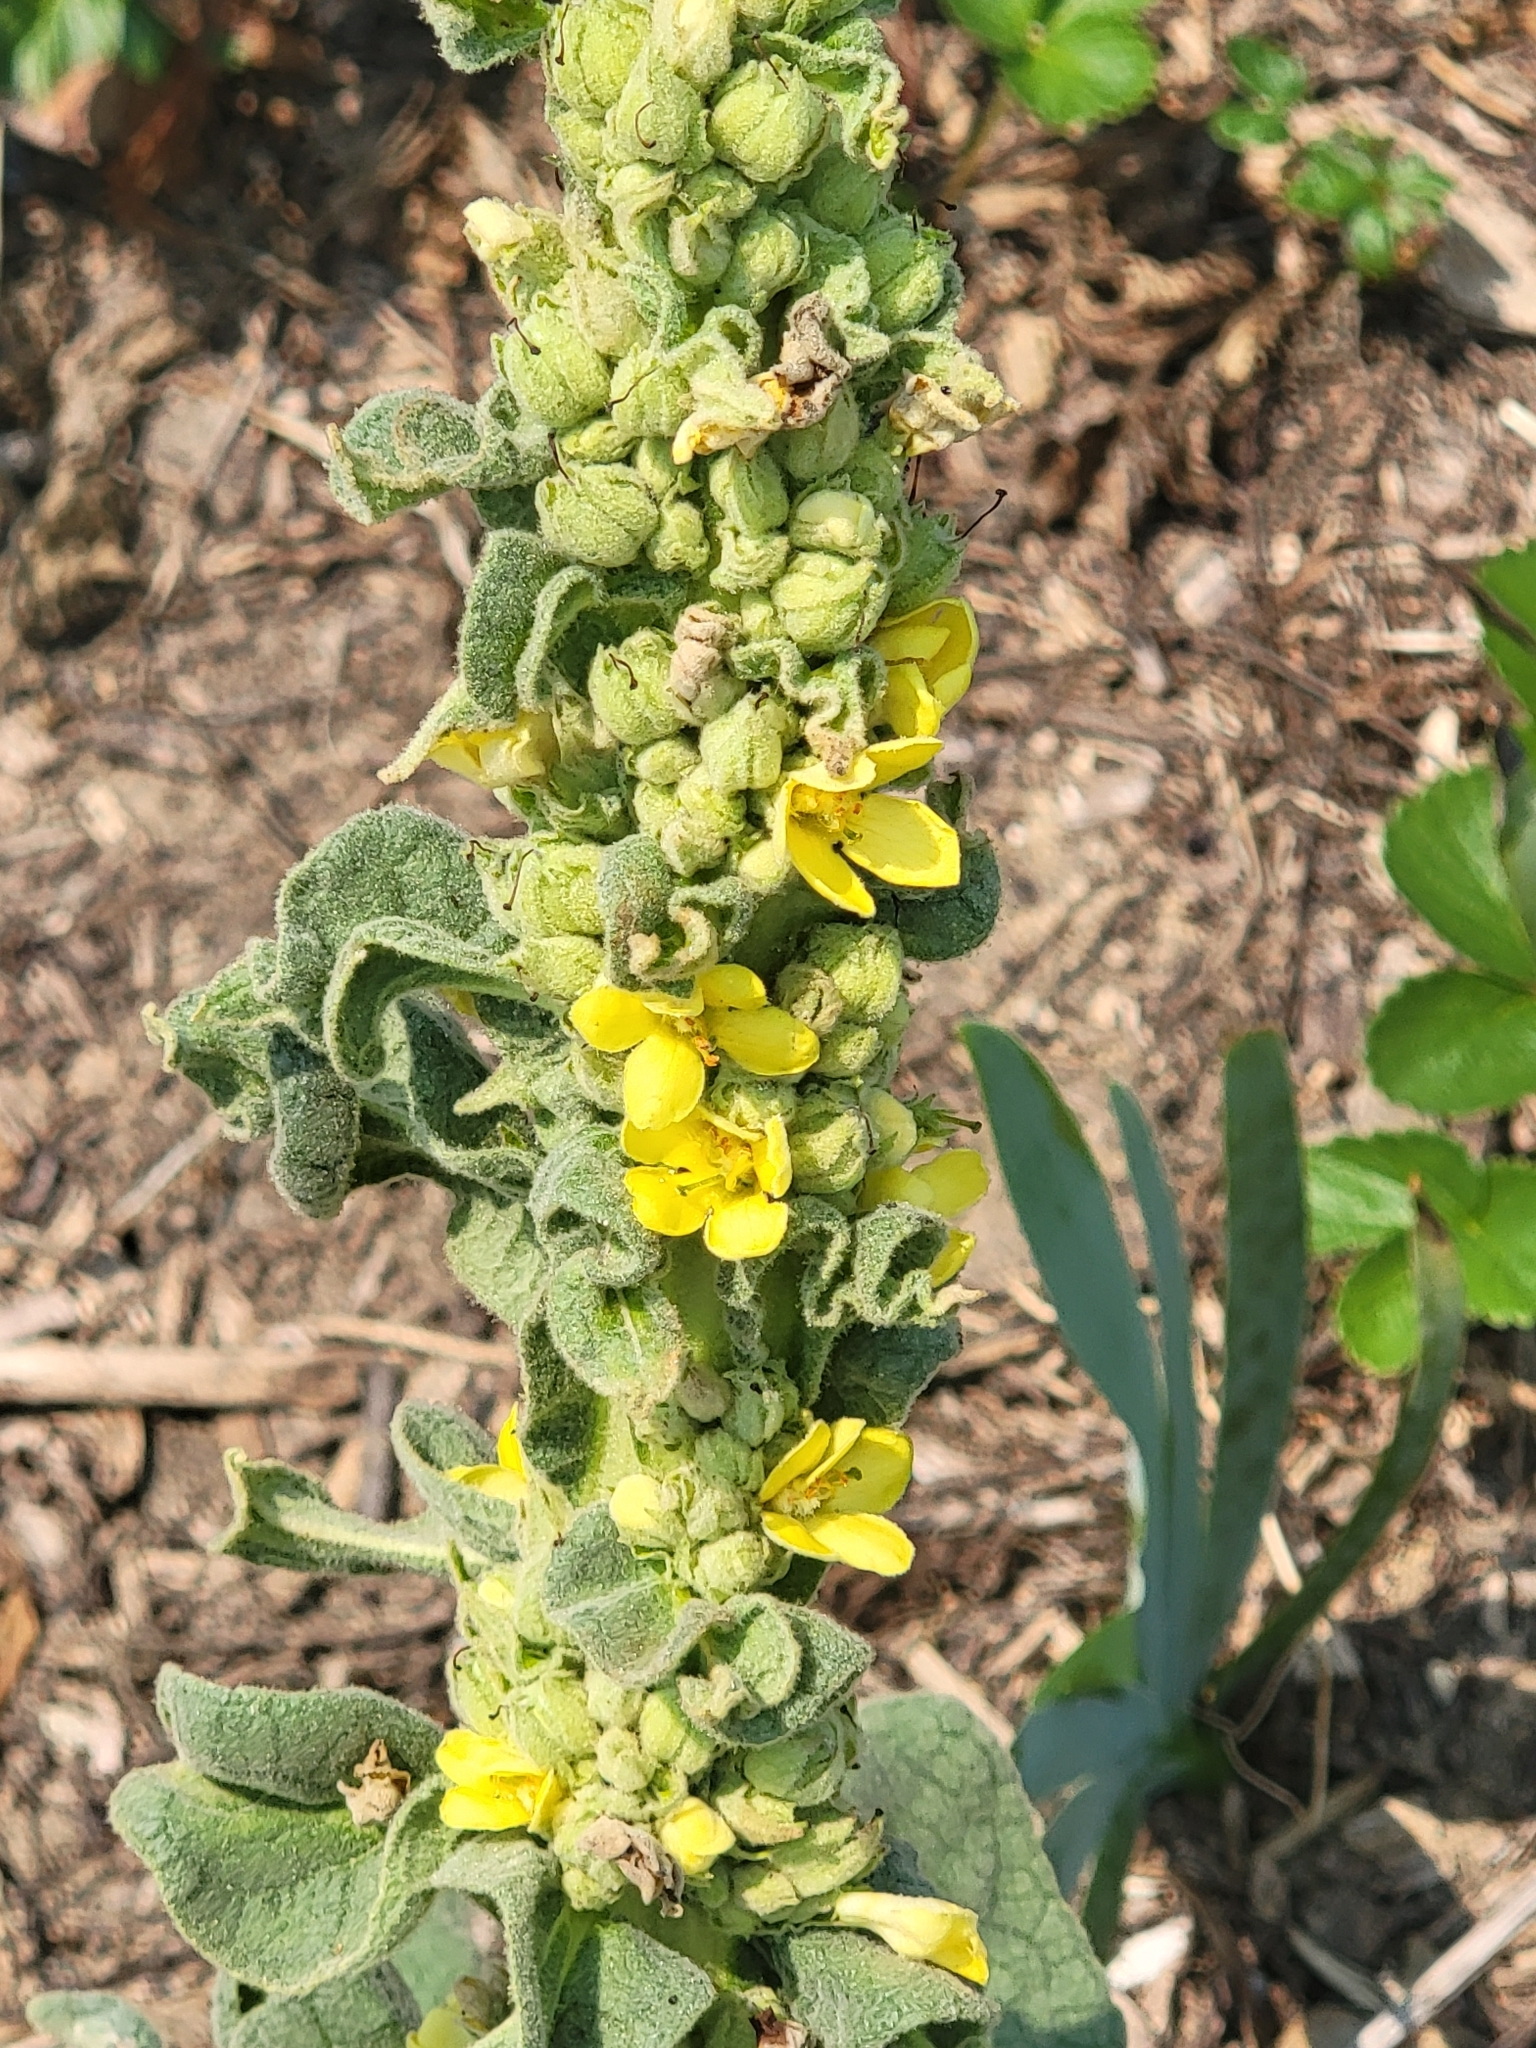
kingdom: Plantae
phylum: Tracheophyta
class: Magnoliopsida
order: Lamiales
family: Scrophulariaceae
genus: Verbascum
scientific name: Verbascum thapsus
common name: Common mullein
